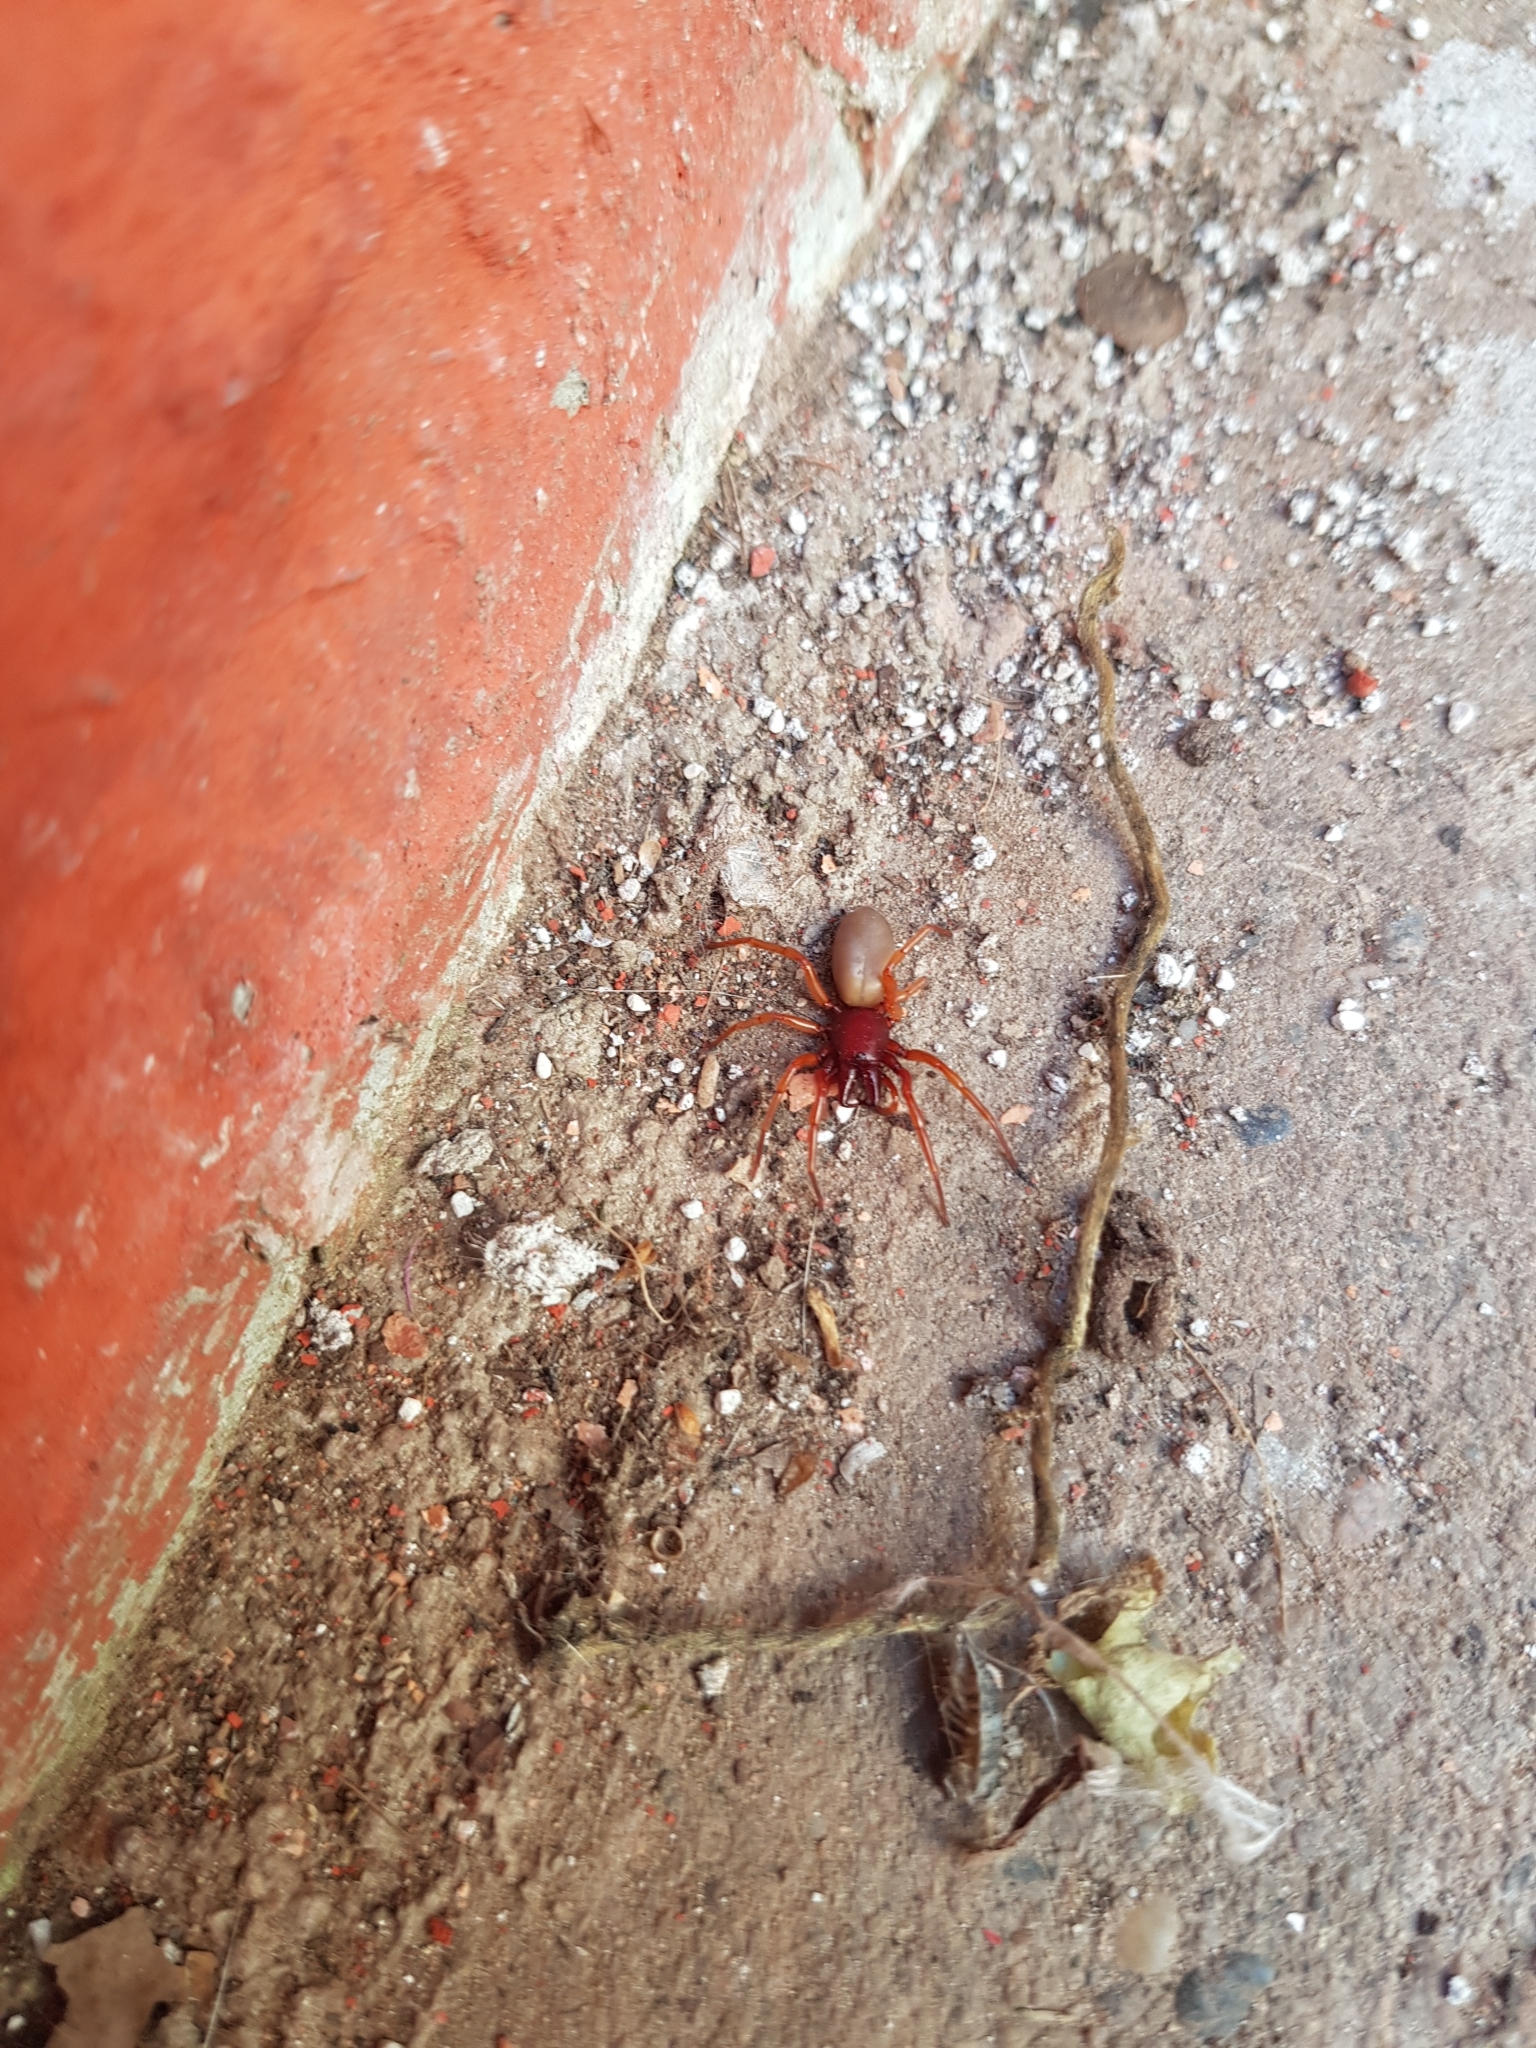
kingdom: Animalia
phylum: Arthropoda
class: Arachnida
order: Araneae
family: Dysderidae
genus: Dysdera
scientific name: Dysdera crocata
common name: Woodlouse spider
